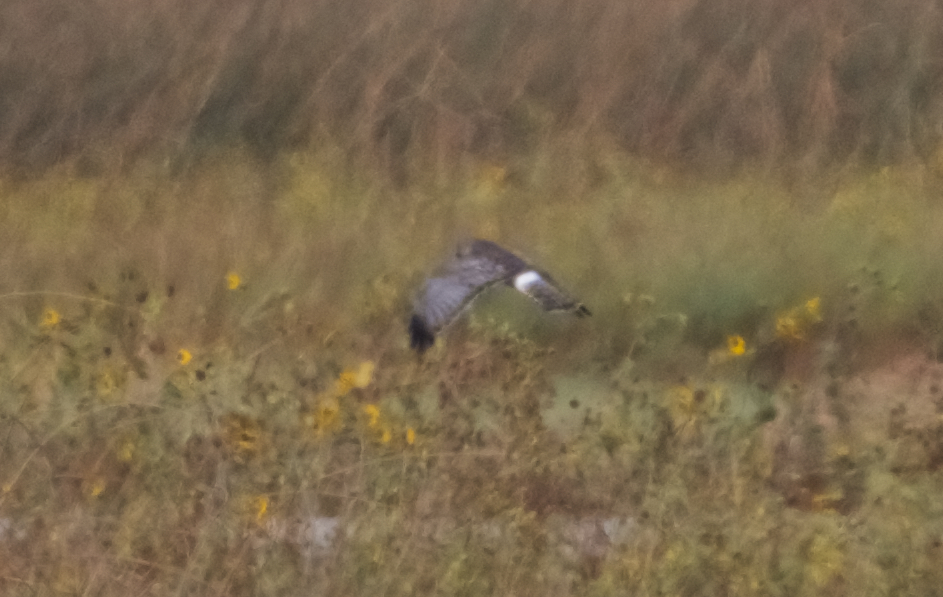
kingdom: Animalia
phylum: Chordata
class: Aves
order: Accipitriformes
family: Accipitridae
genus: Circus
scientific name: Circus cyaneus
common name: Hen harrier
